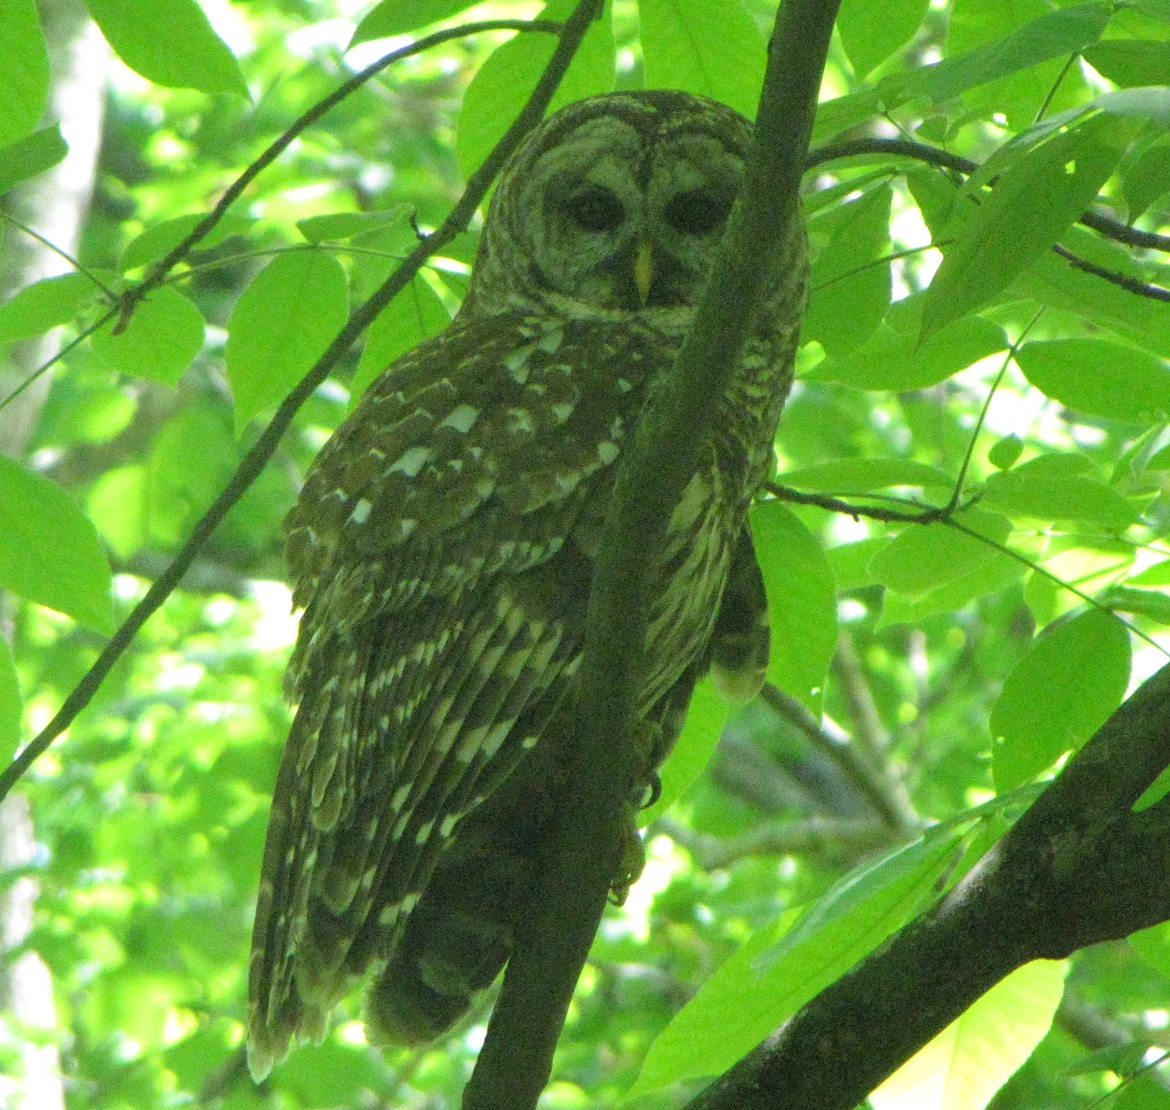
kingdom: Animalia
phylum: Chordata
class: Aves
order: Strigiformes
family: Strigidae
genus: Strix
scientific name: Strix varia
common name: Barred owl
